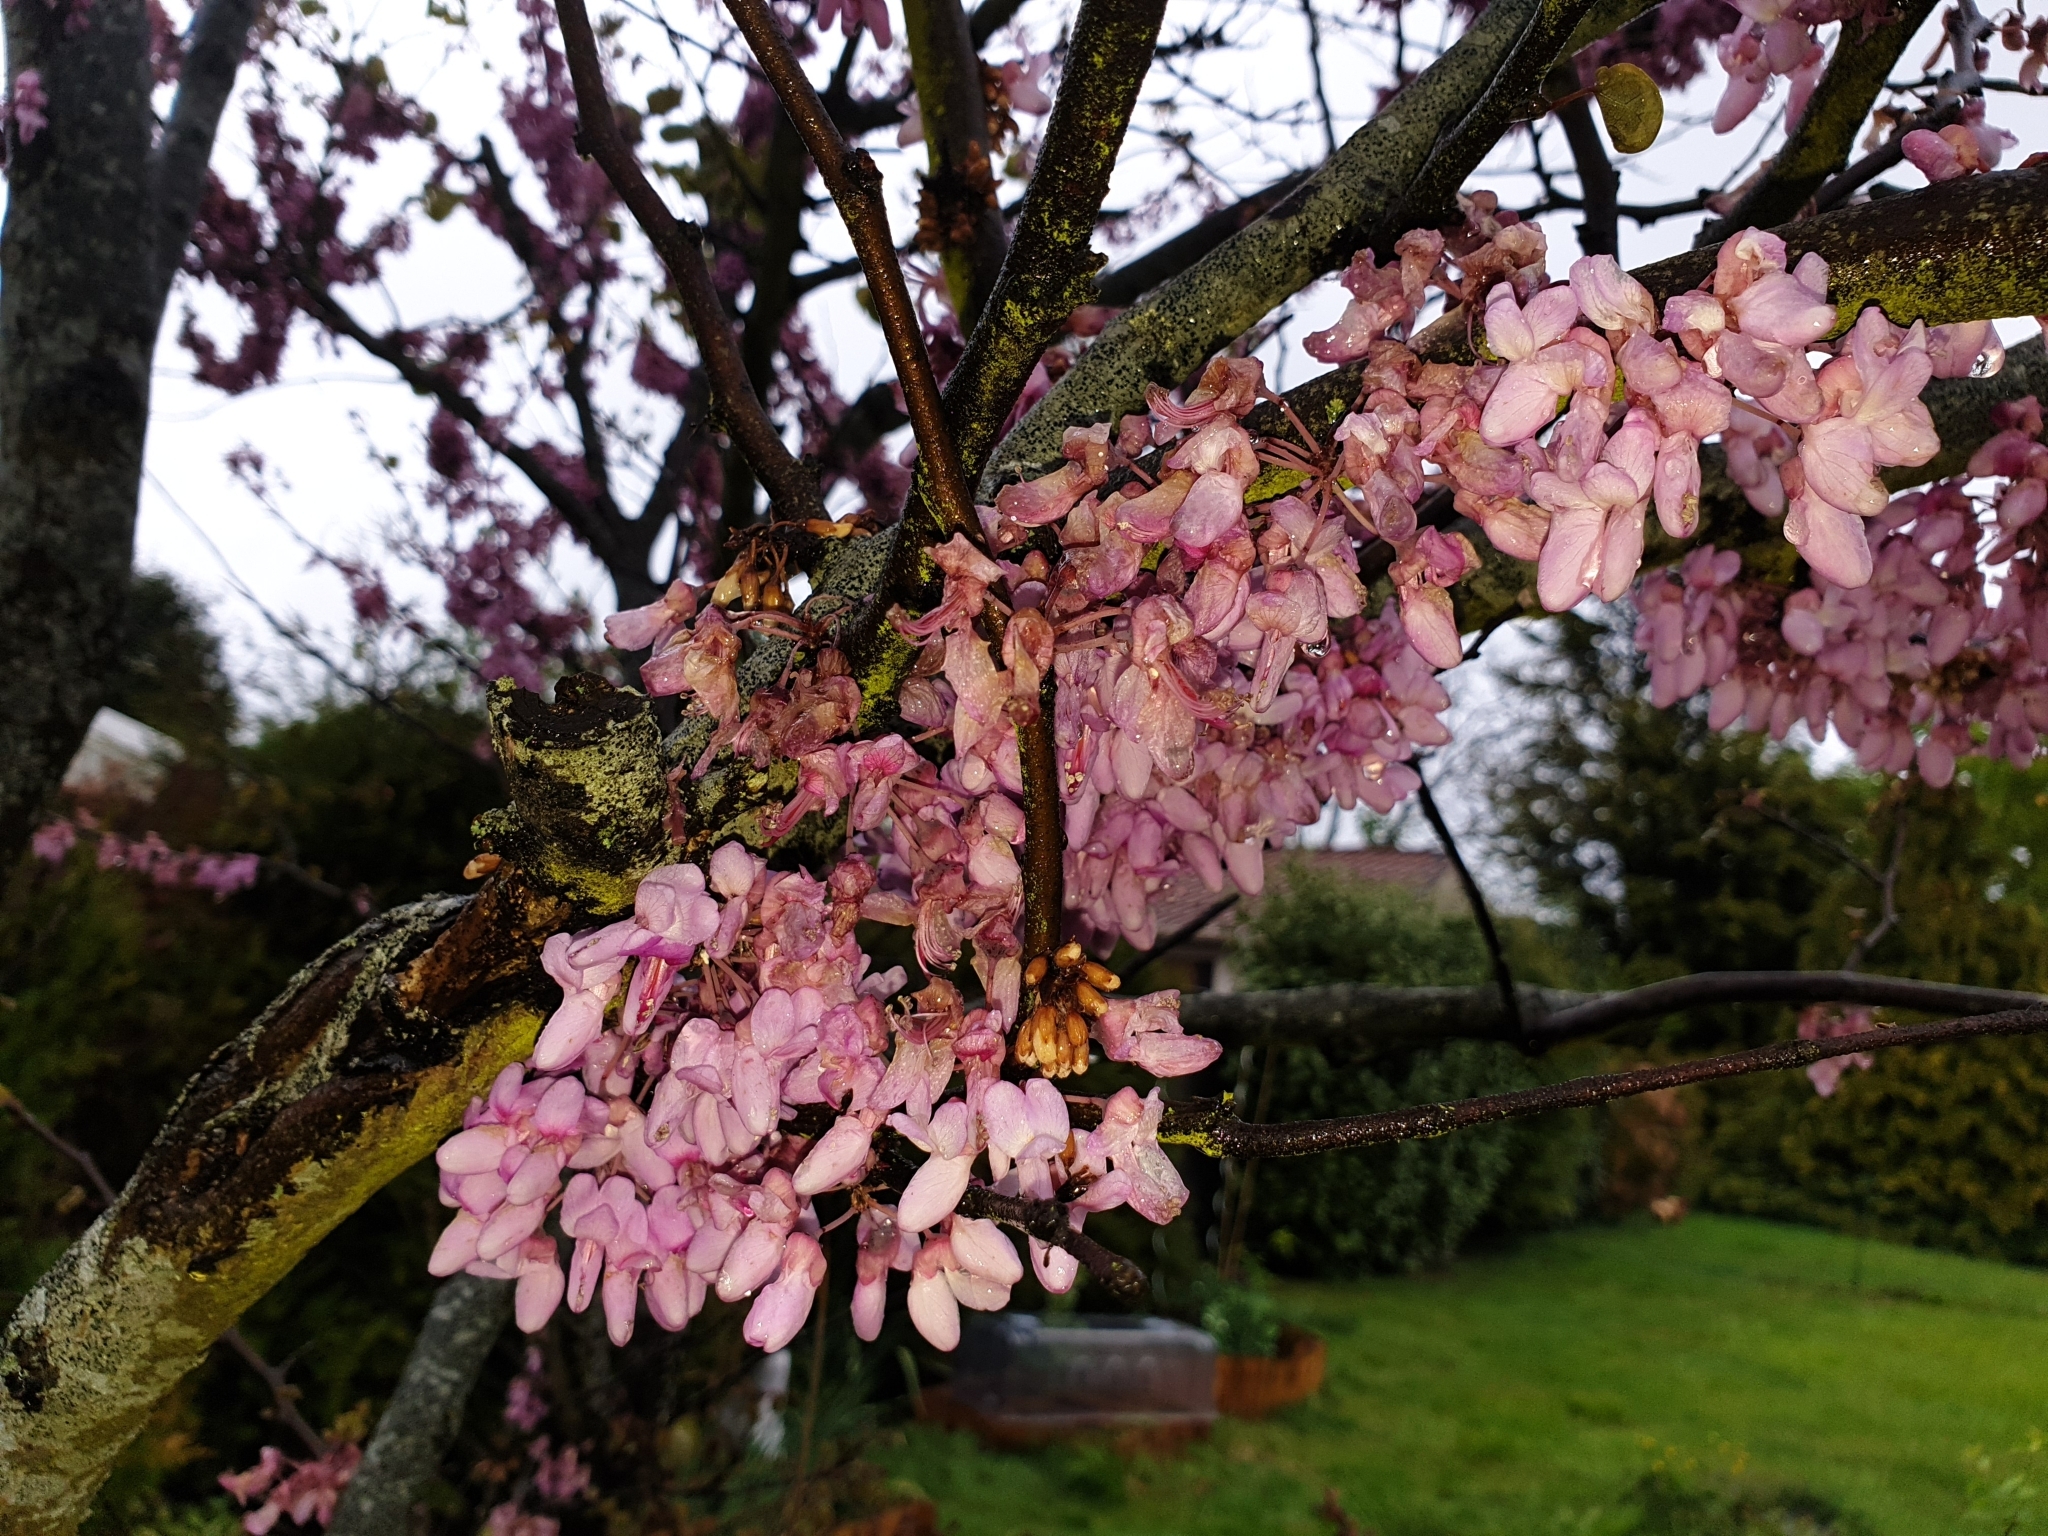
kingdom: Plantae
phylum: Tracheophyta
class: Magnoliopsida
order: Fabales
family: Fabaceae
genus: Cercis
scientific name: Cercis siliquastrum
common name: Judas tree
